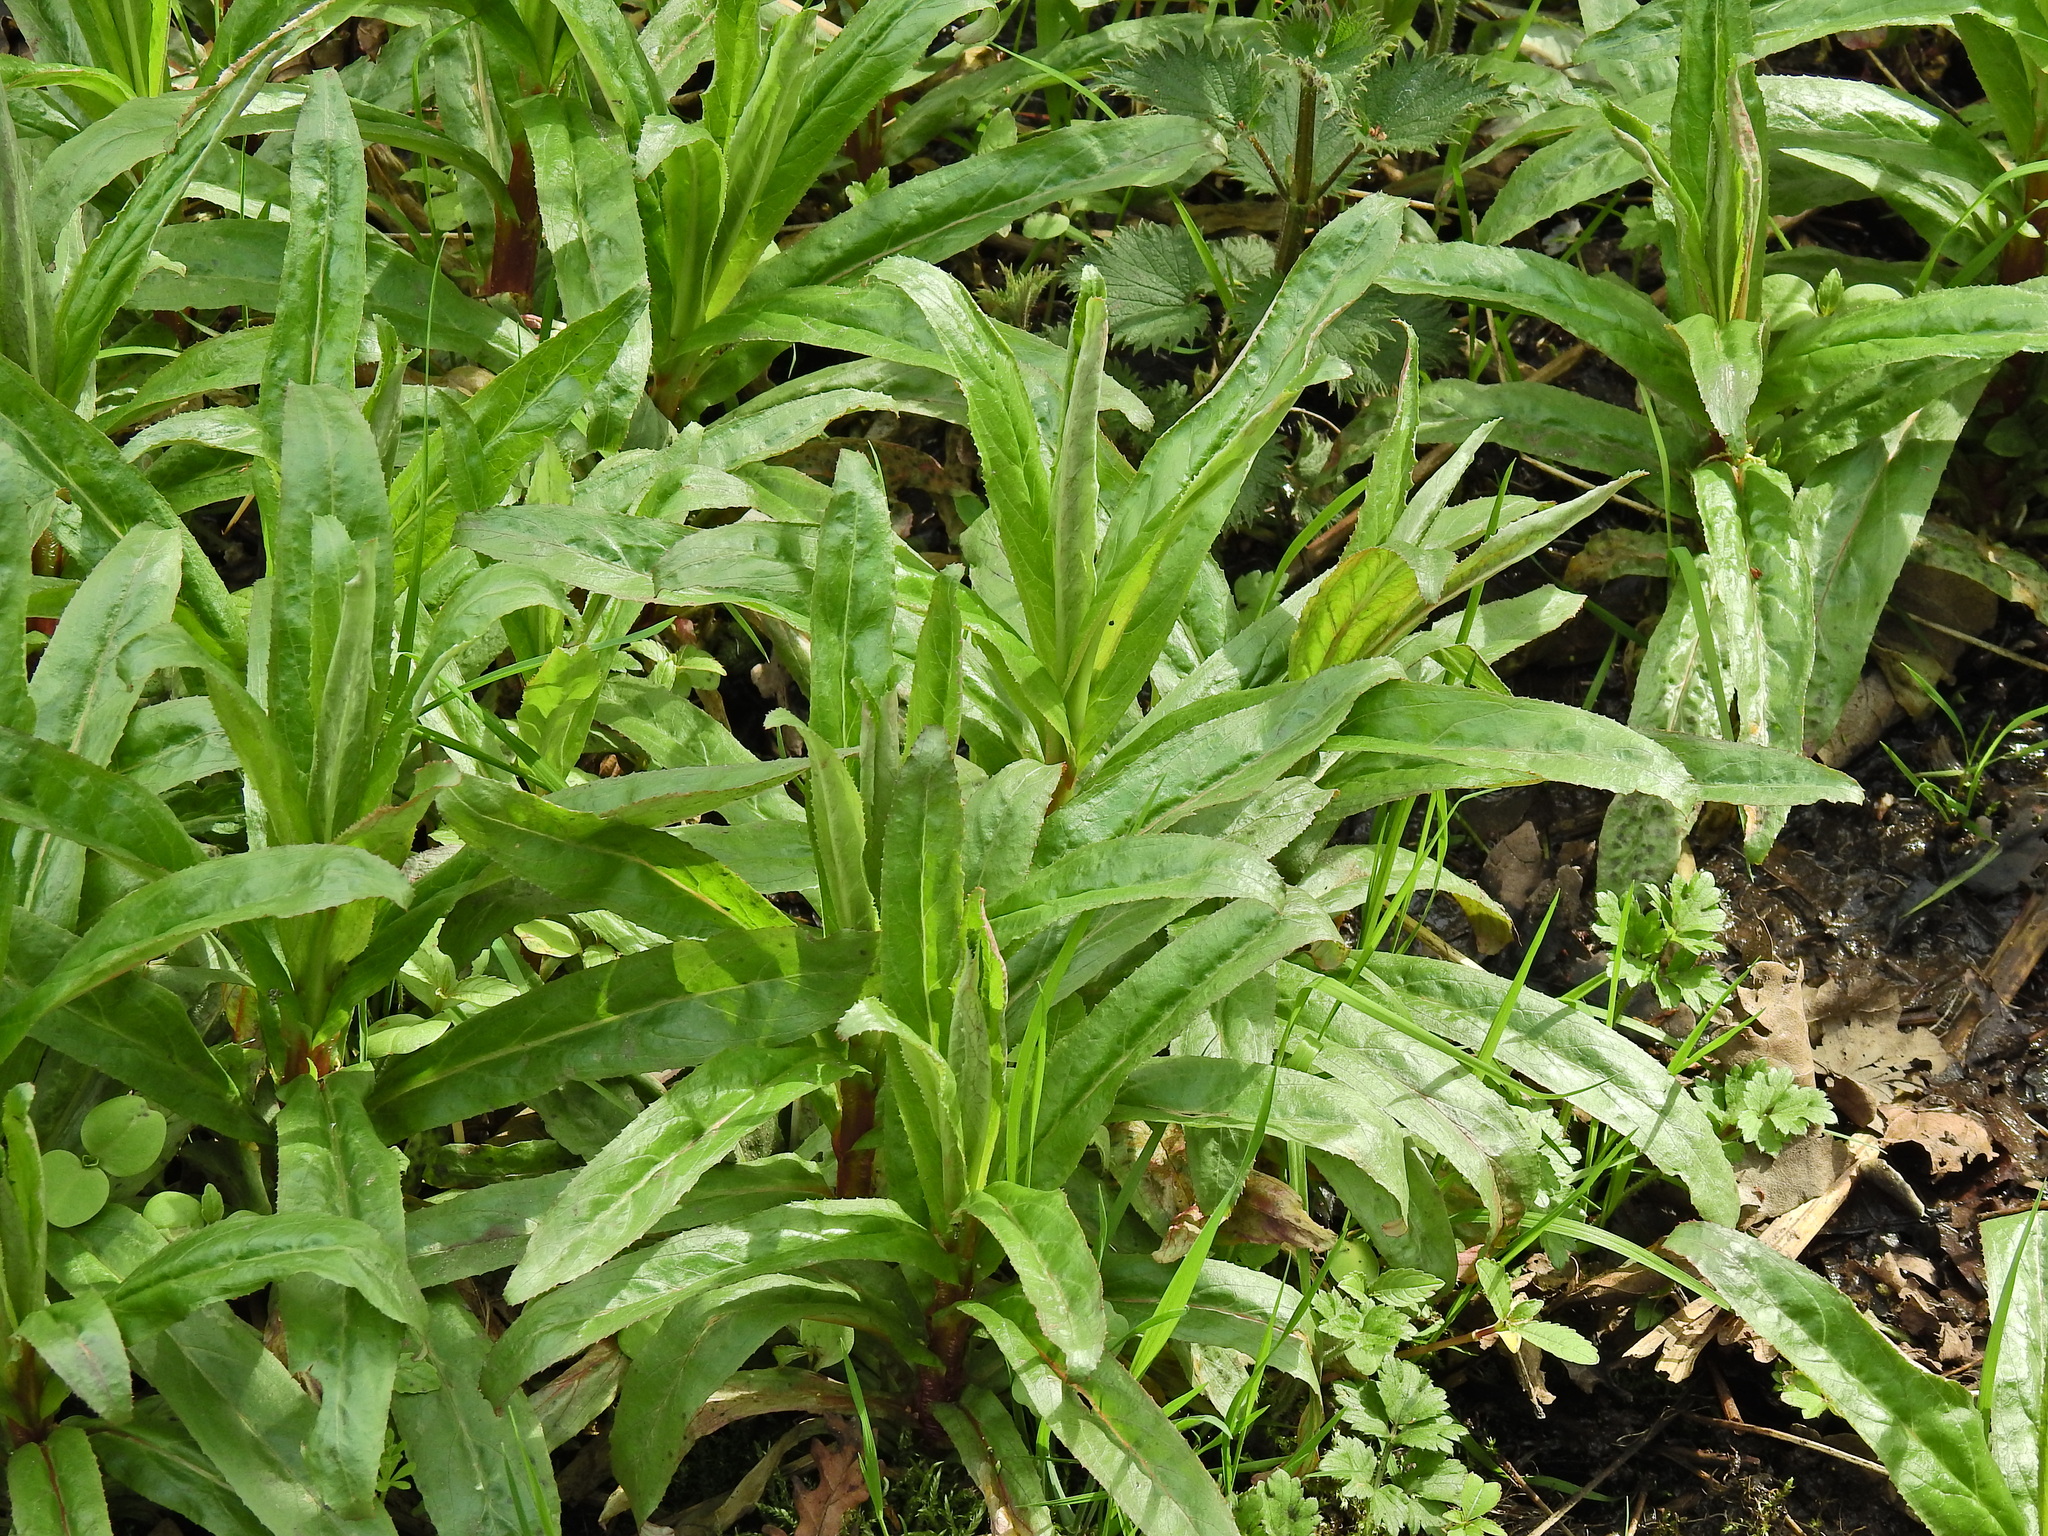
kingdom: Plantae
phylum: Tracheophyta
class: Magnoliopsida
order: Myrtales
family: Onagraceae
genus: Epilobium
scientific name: Epilobium hirsutum
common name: Great willowherb
